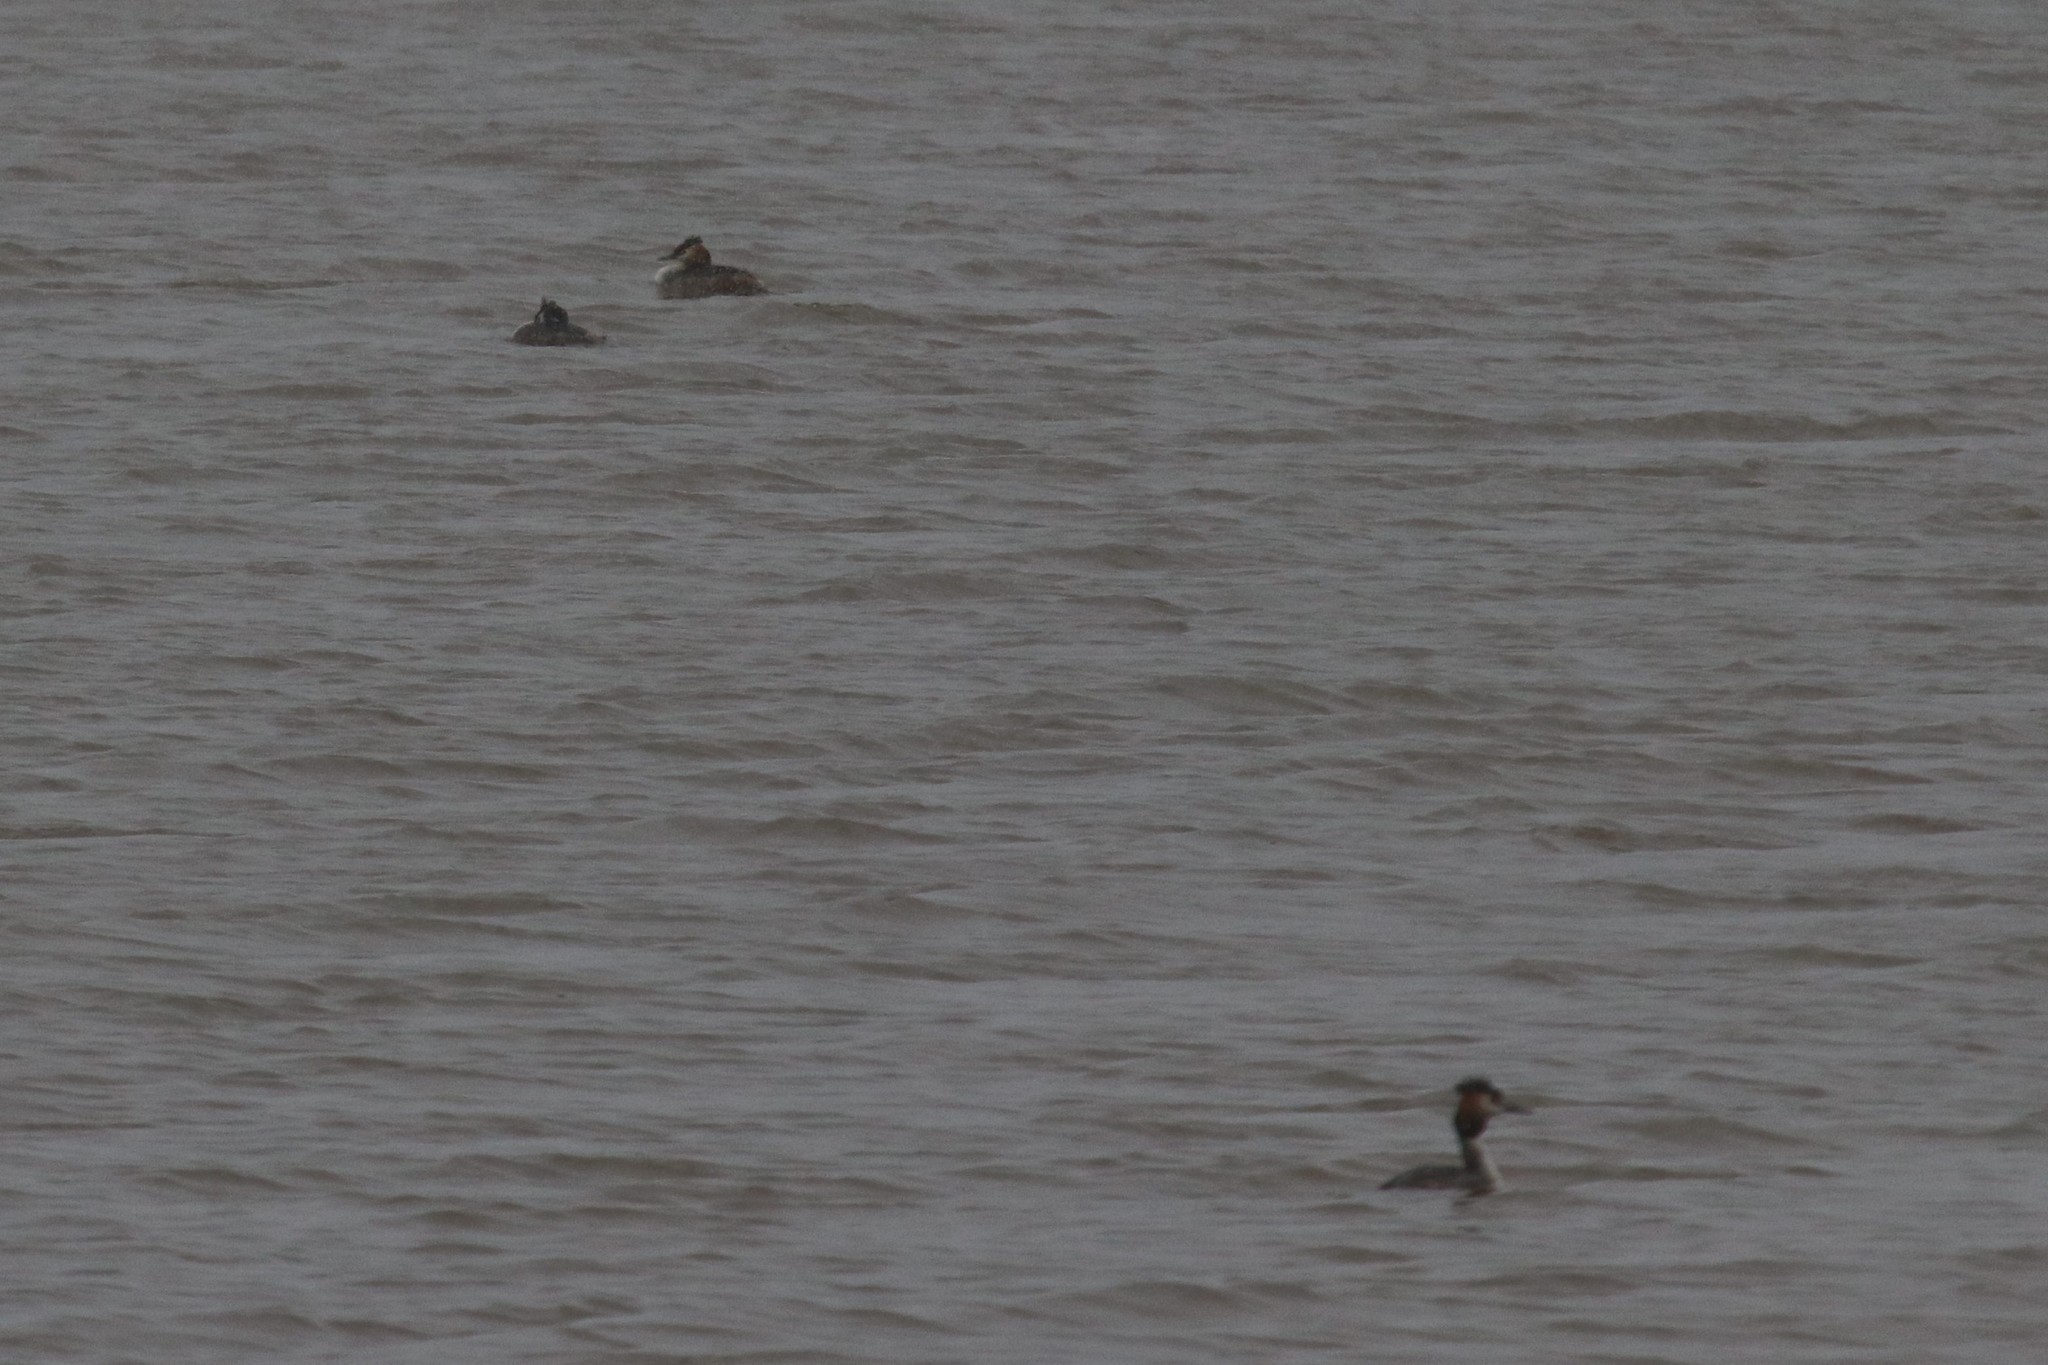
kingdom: Animalia
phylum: Chordata
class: Aves
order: Podicipediformes
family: Podicipedidae
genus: Podiceps
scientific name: Podiceps cristatus
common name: Great crested grebe
